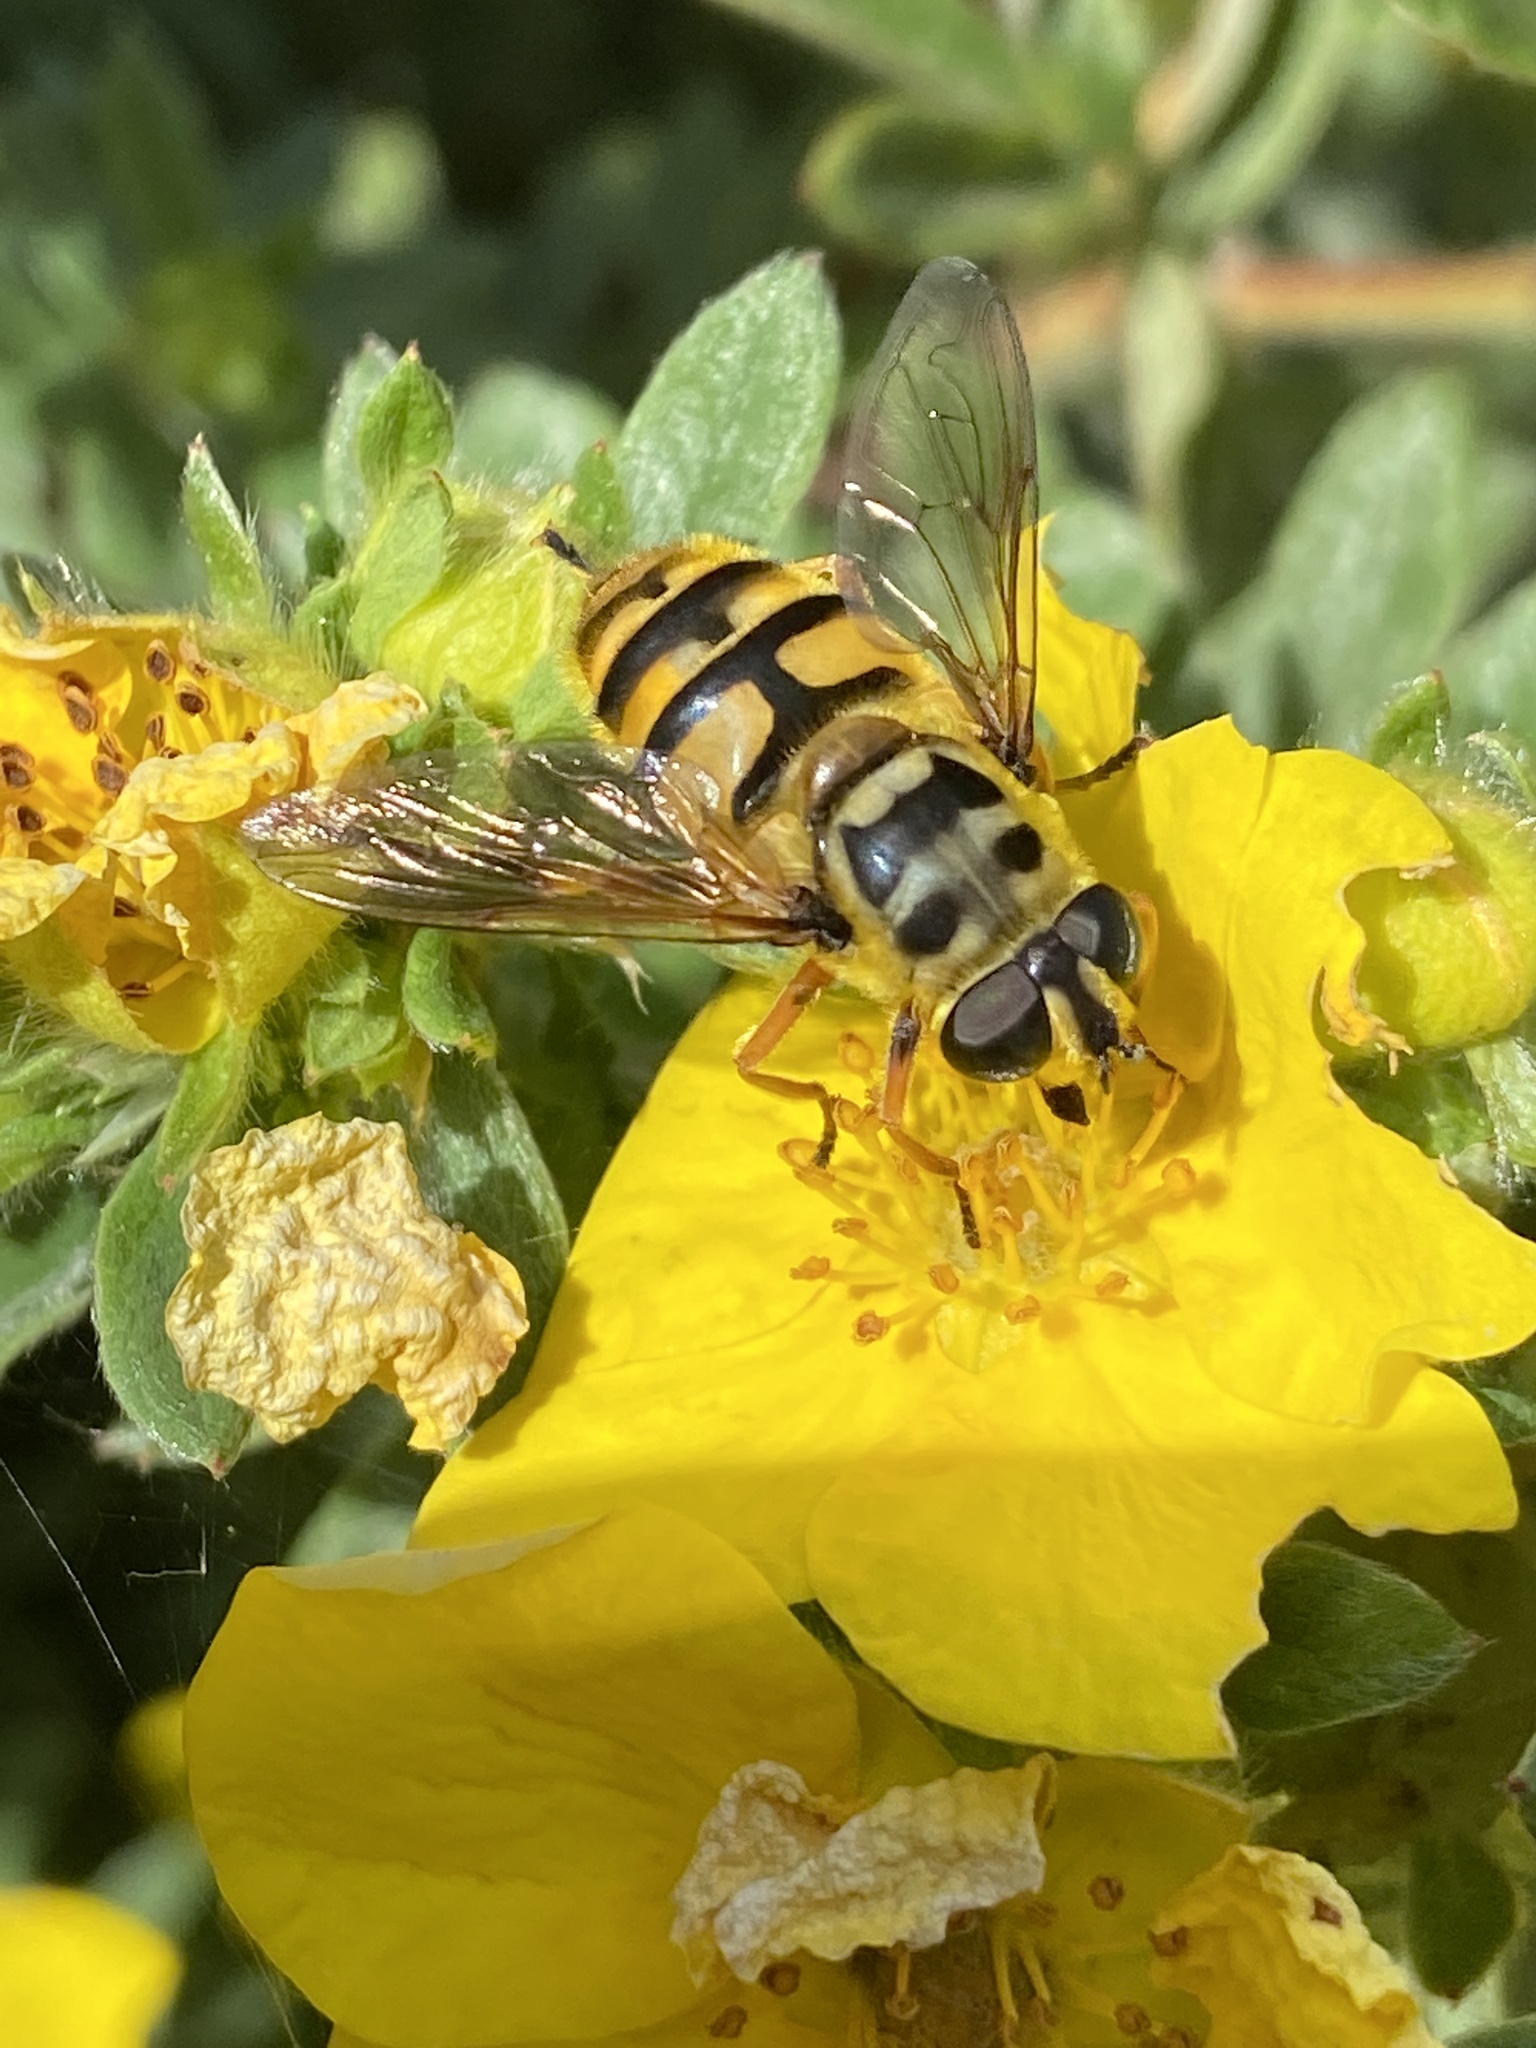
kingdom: Animalia
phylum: Arthropoda
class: Insecta
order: Diptera
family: Syrphidae
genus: Myathropa
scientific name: Myathropa florea
